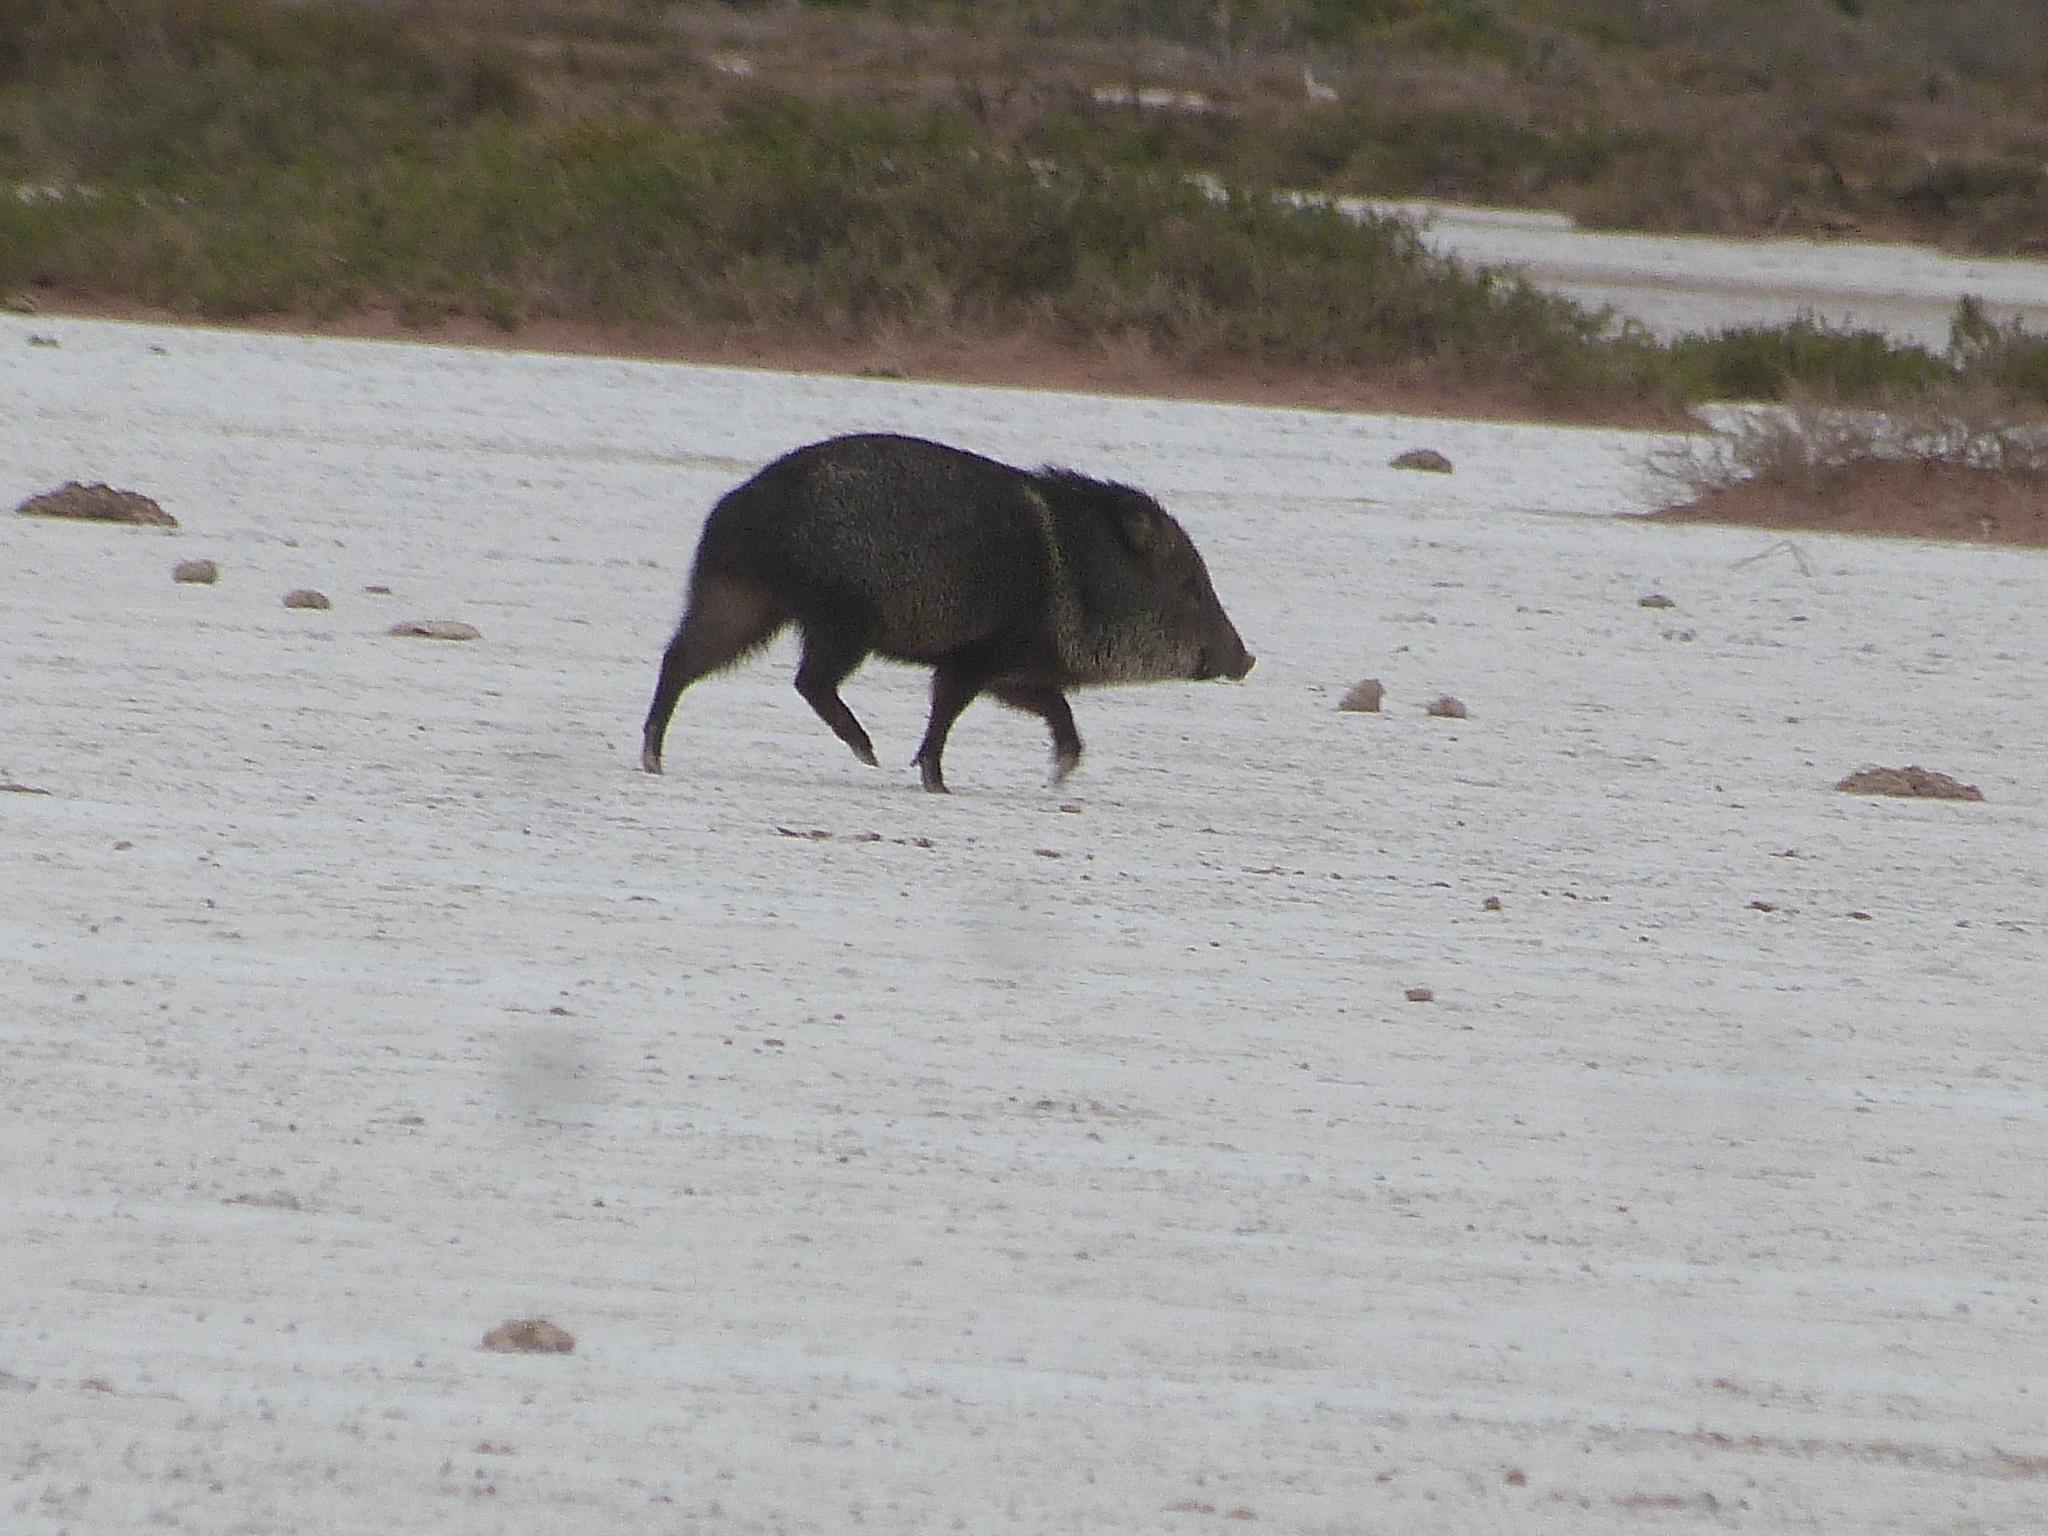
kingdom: Animalia
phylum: Chordata
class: Mammalia
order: Artiodactyla
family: Tayassuidae
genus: Pecari
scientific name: Pecari tajacu
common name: Collared peccary
